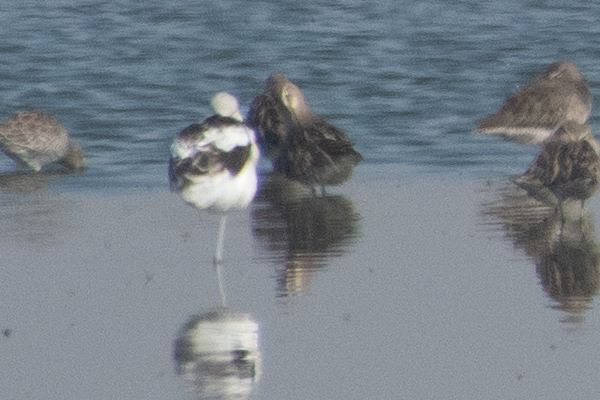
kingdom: Animalia
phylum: Chordata
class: Aves
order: Charadriiformes
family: Recurvirostridae
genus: Recurvirostra
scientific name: Recurvirostra americana
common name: American avocet
